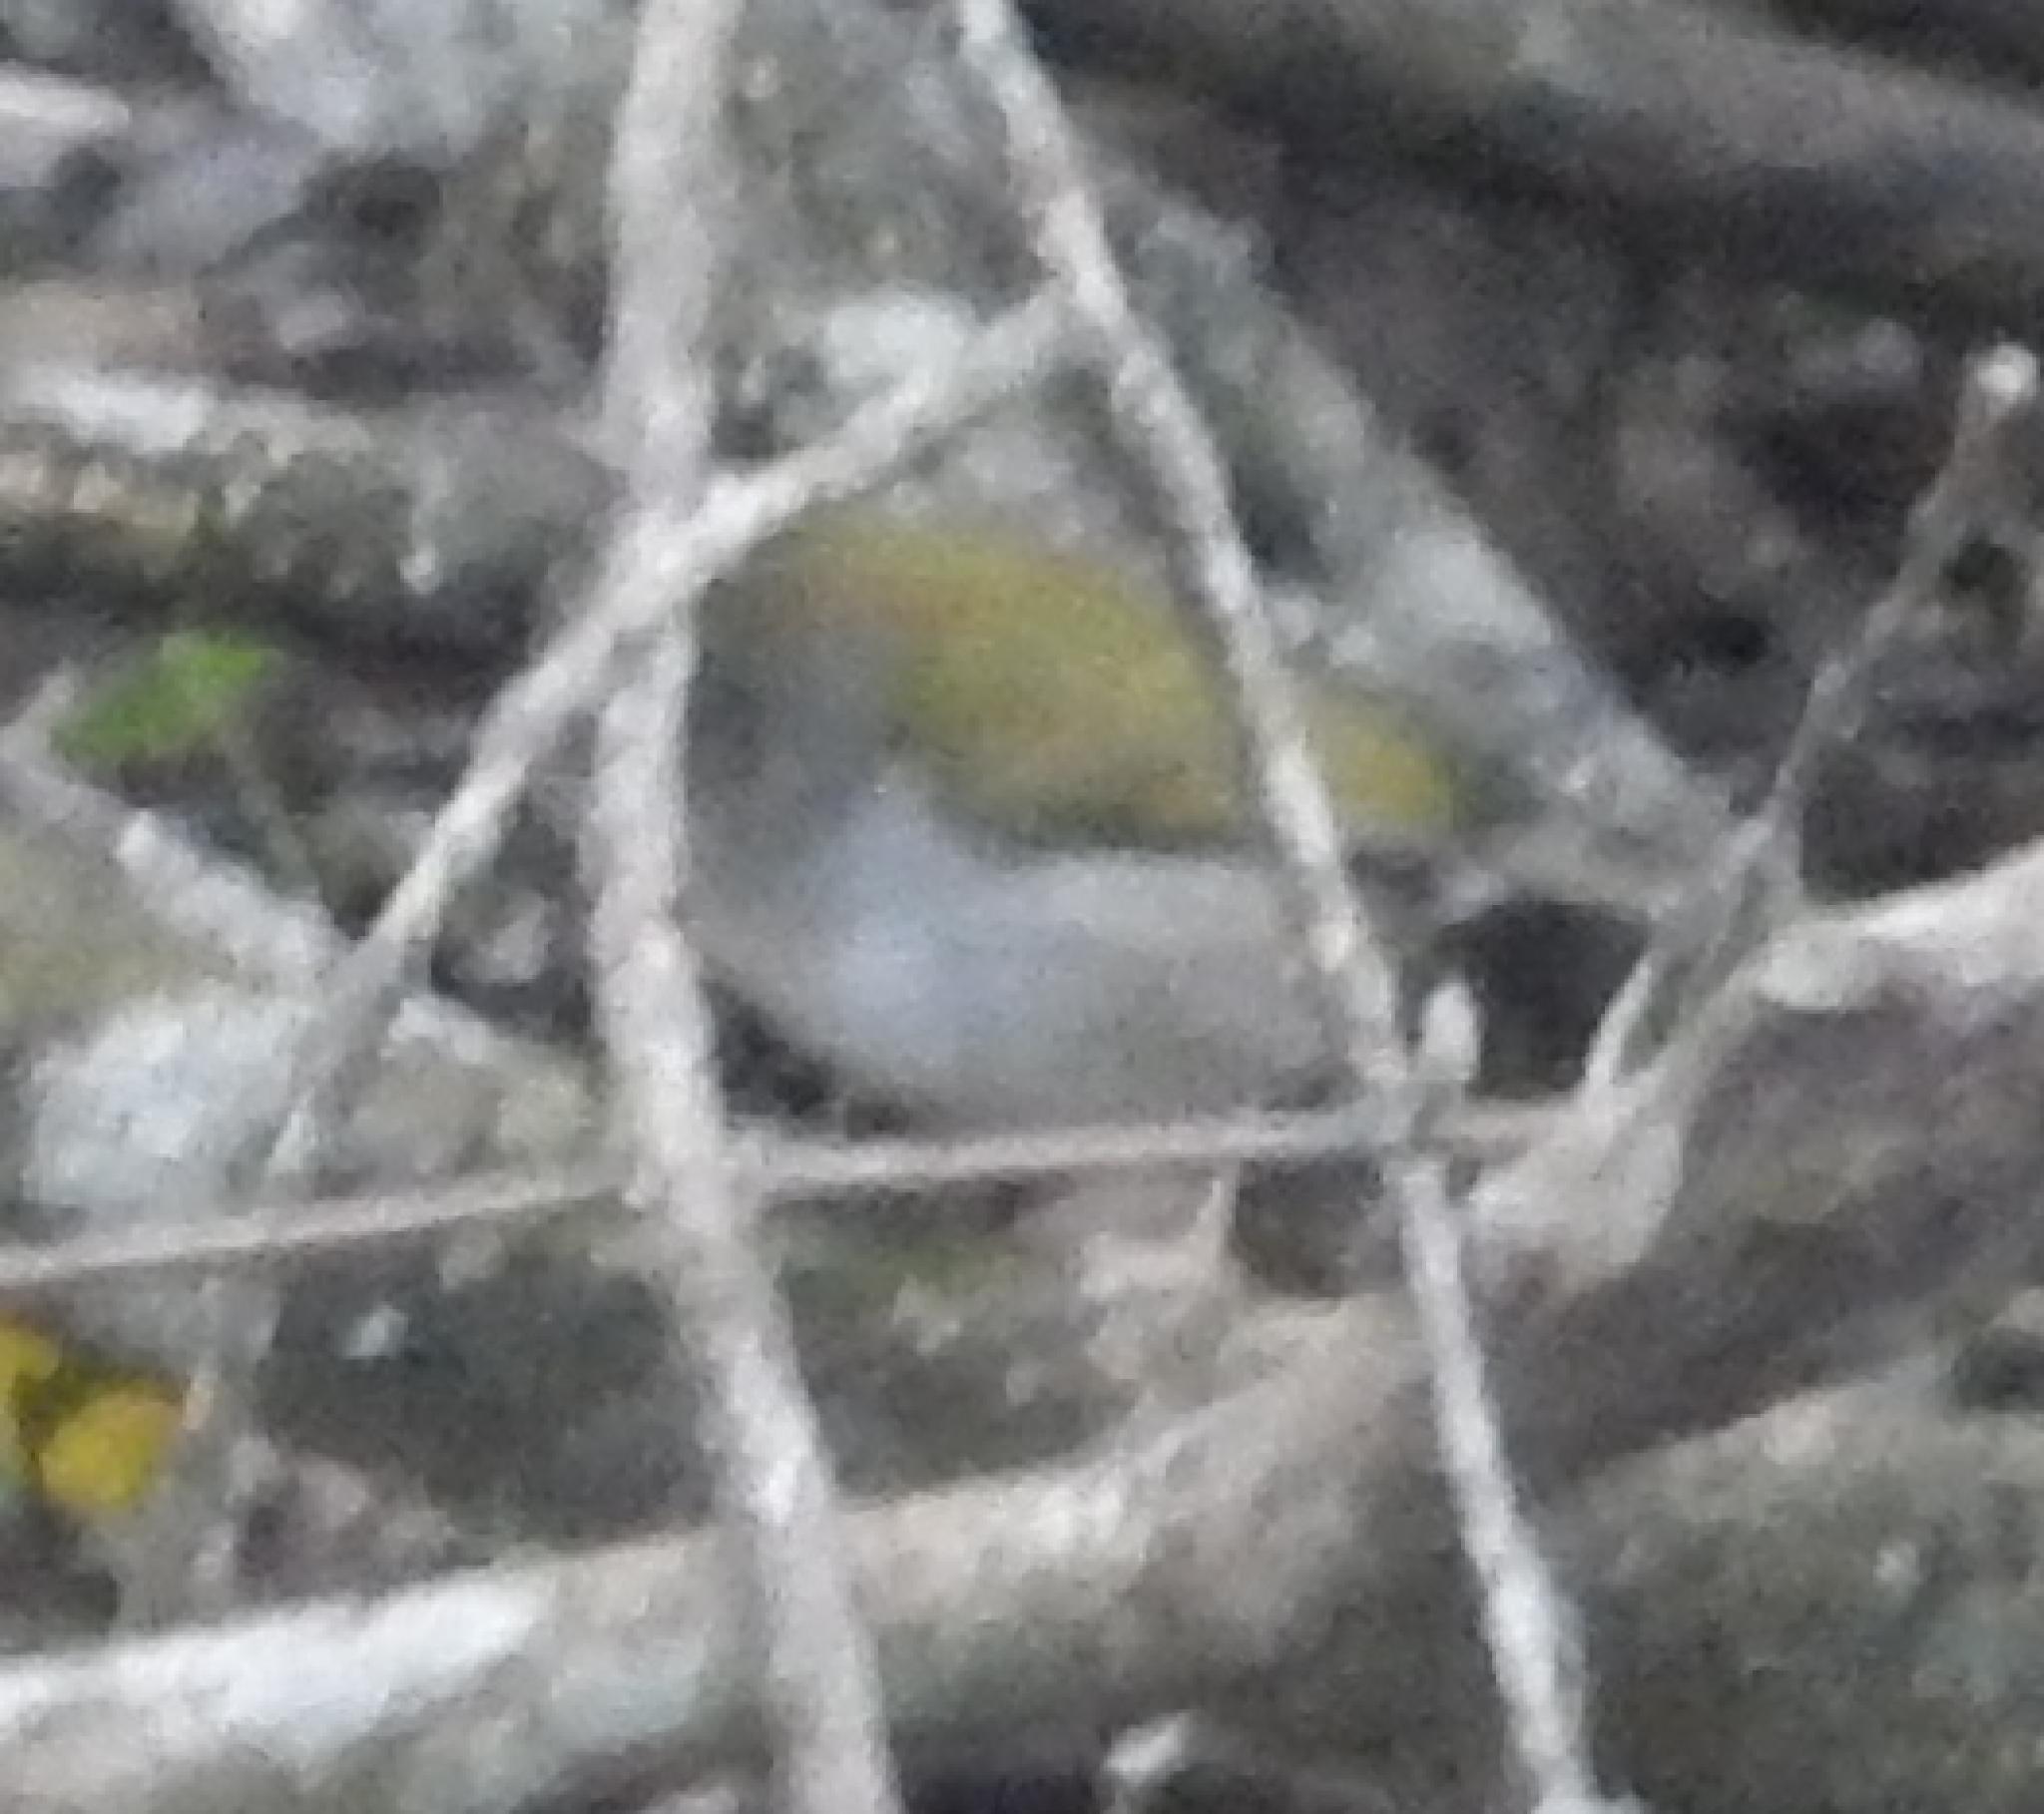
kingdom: Animalia
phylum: Chordata
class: Aves
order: Passeriformes
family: Cisticolidae
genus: Camaroptera
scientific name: Camaroptera brachyura
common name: Green-backed camaroptera
